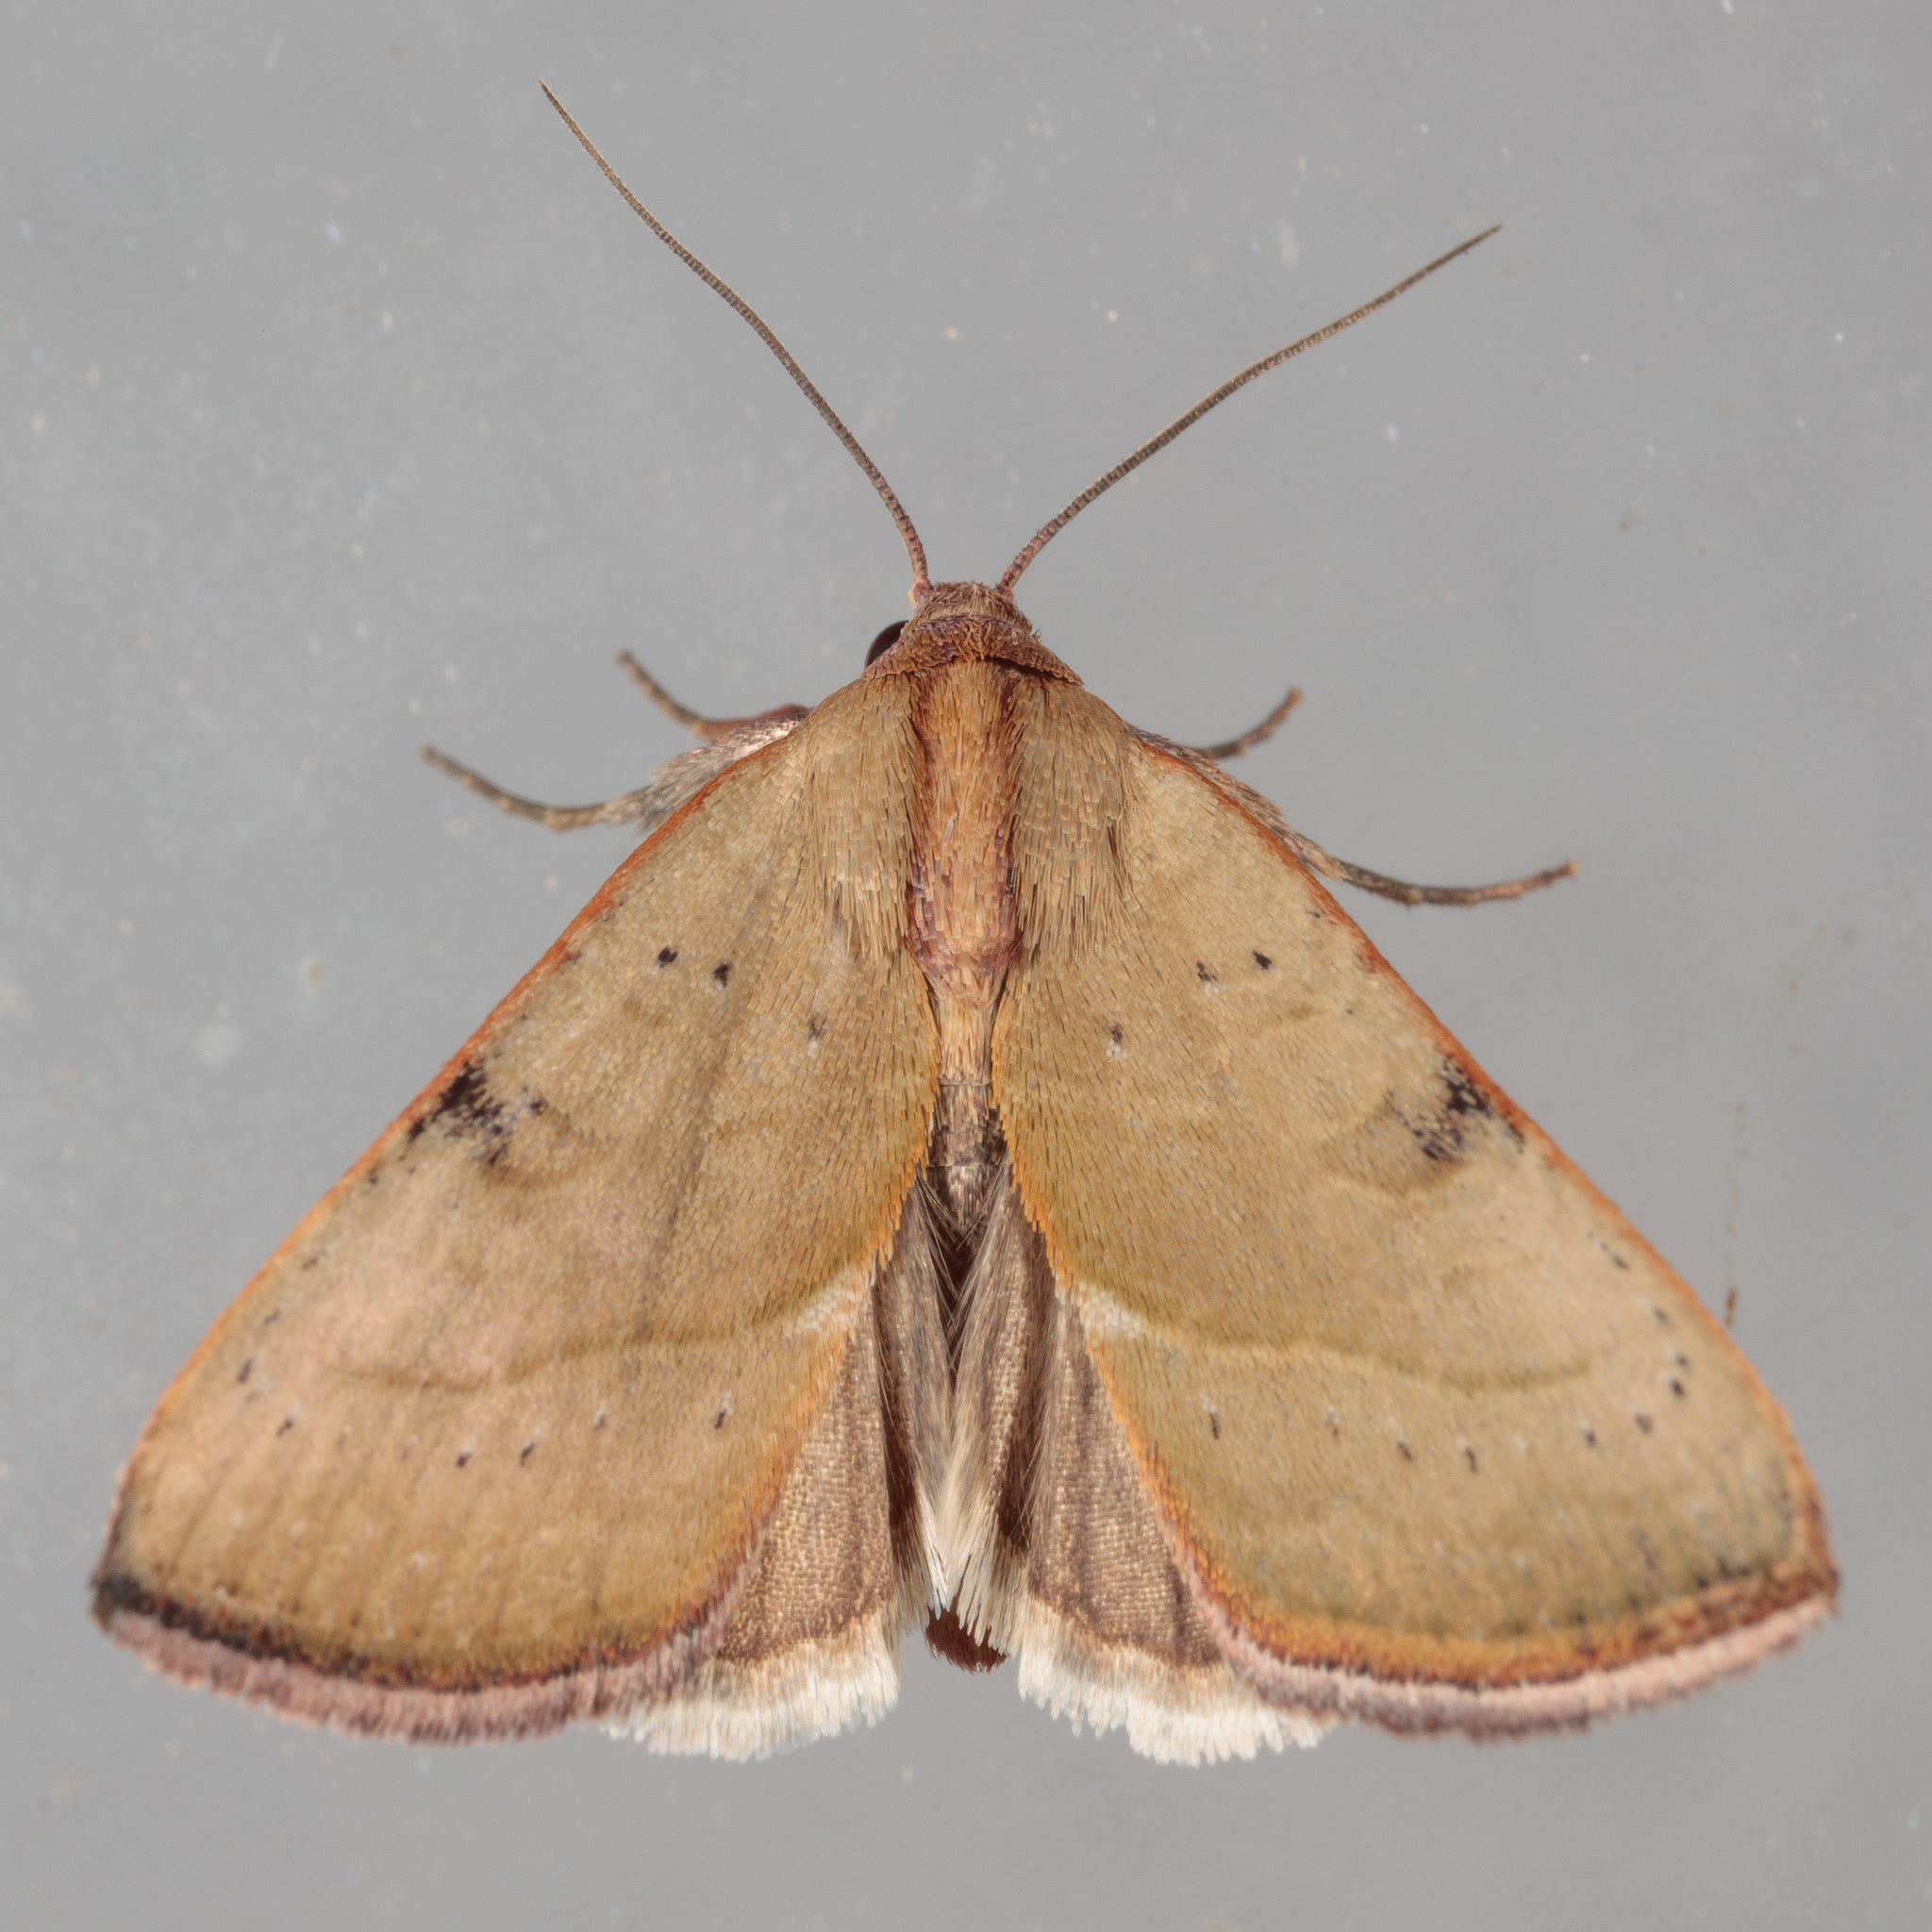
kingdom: Animalia
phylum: Arthropoda
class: Insecta
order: Lepidoptera
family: Noctuidae
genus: Galgula
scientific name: Galgula partita
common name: Wedgeling
